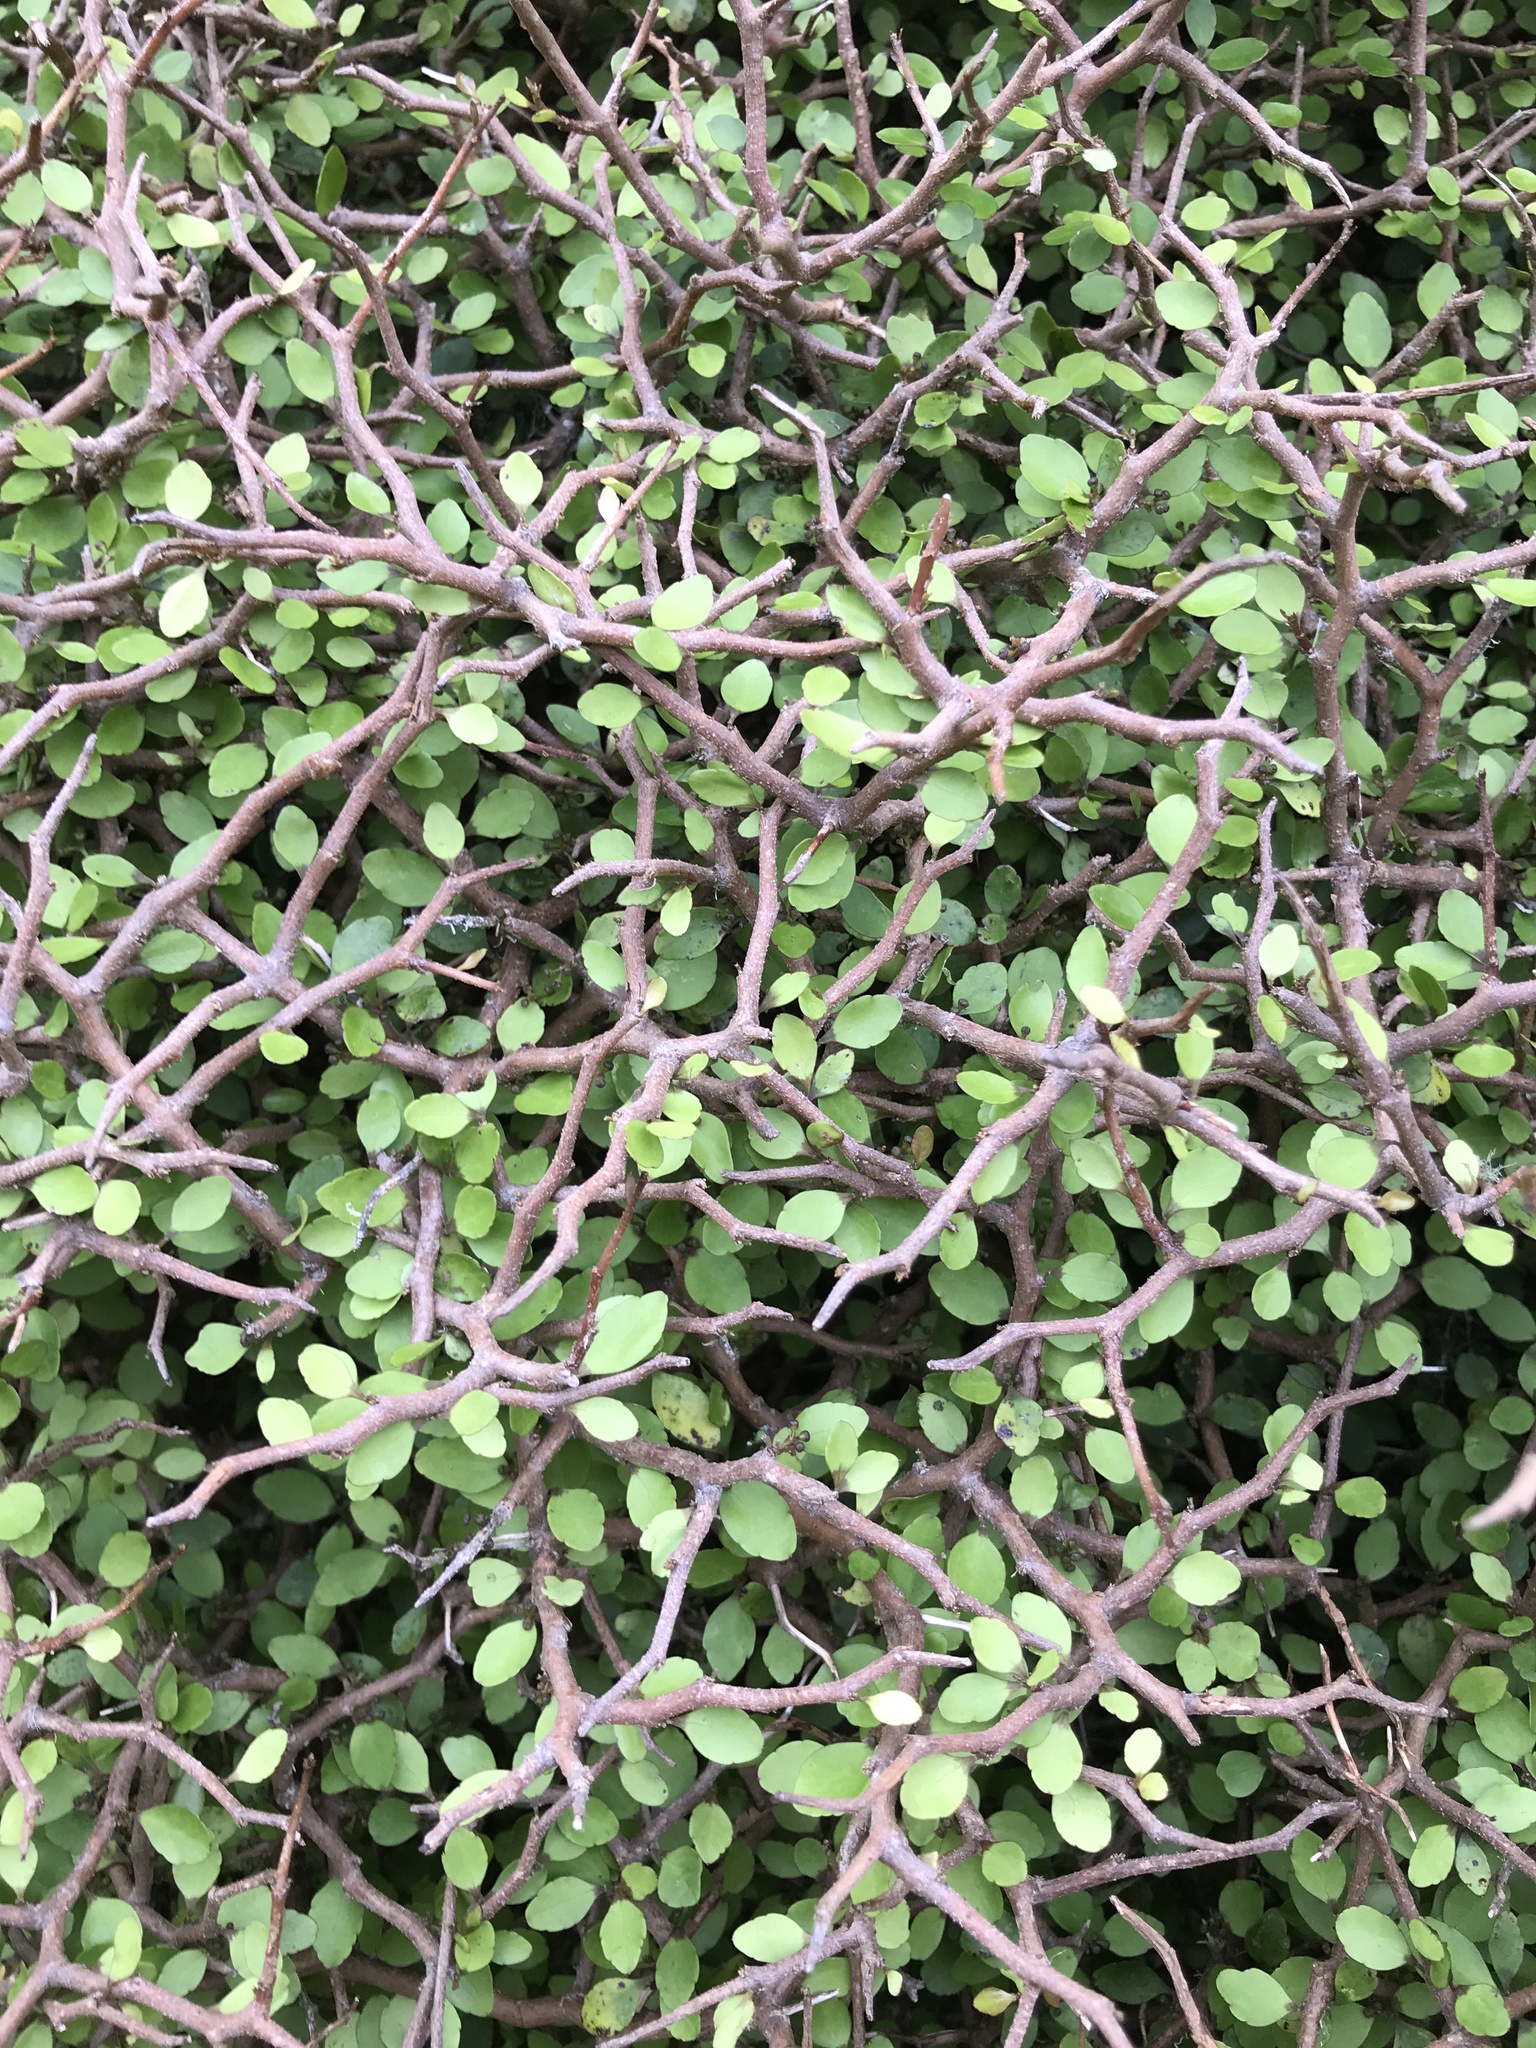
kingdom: Plantae
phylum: Tracheophyta
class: Magnoliopsida
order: Apiales
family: Araliaceae
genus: Raukaua
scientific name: Raukaua anomalus
